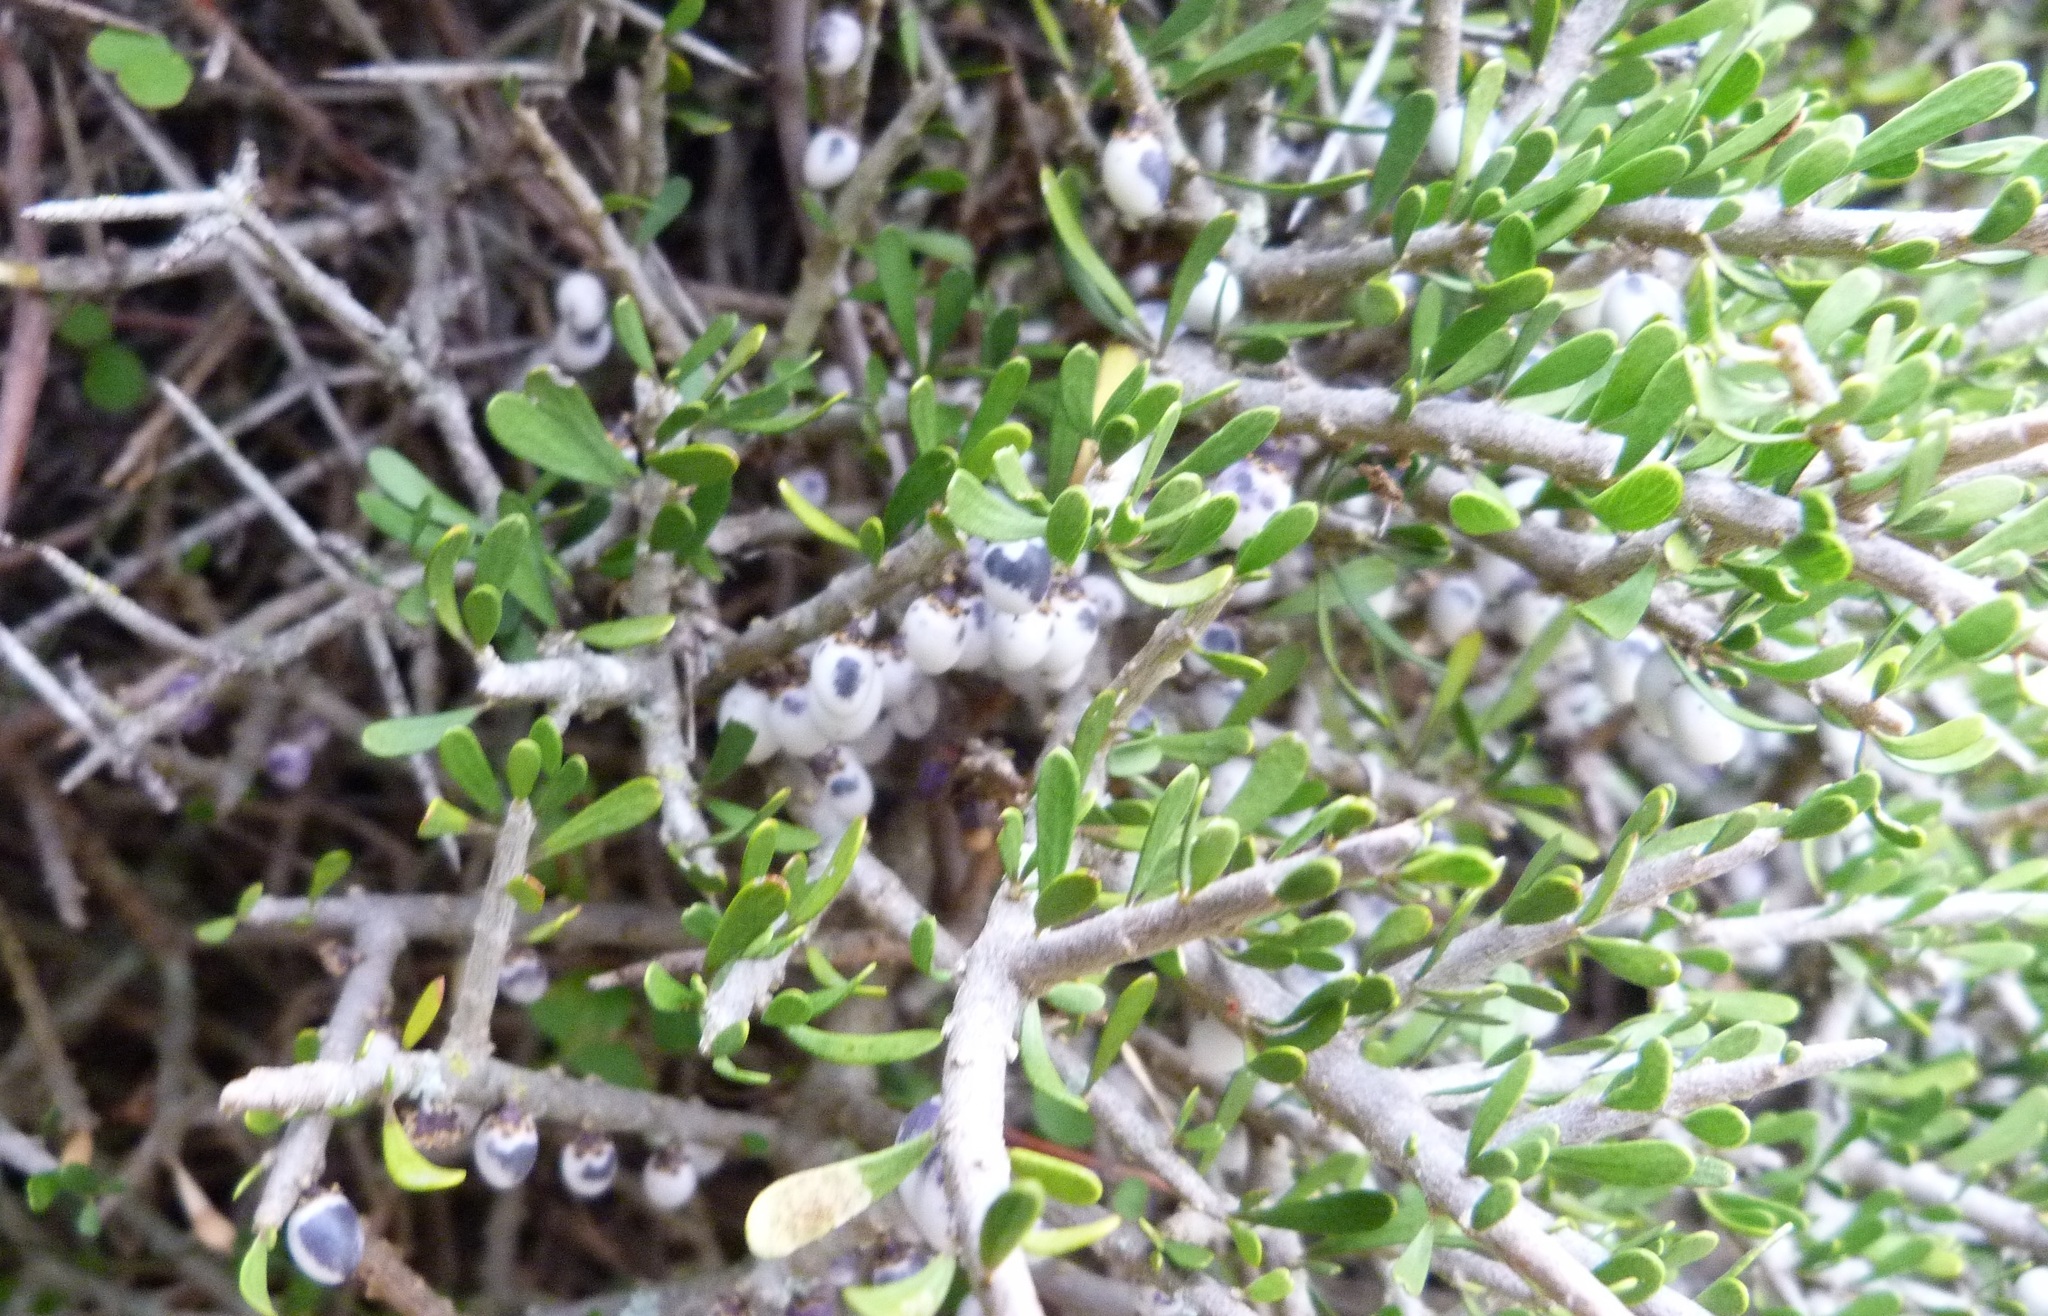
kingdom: Plantae
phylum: Tracheophyta
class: Magnoliopsida
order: Malpighiales
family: Violaceae
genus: Melicytus
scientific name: Melicytus alpinus
